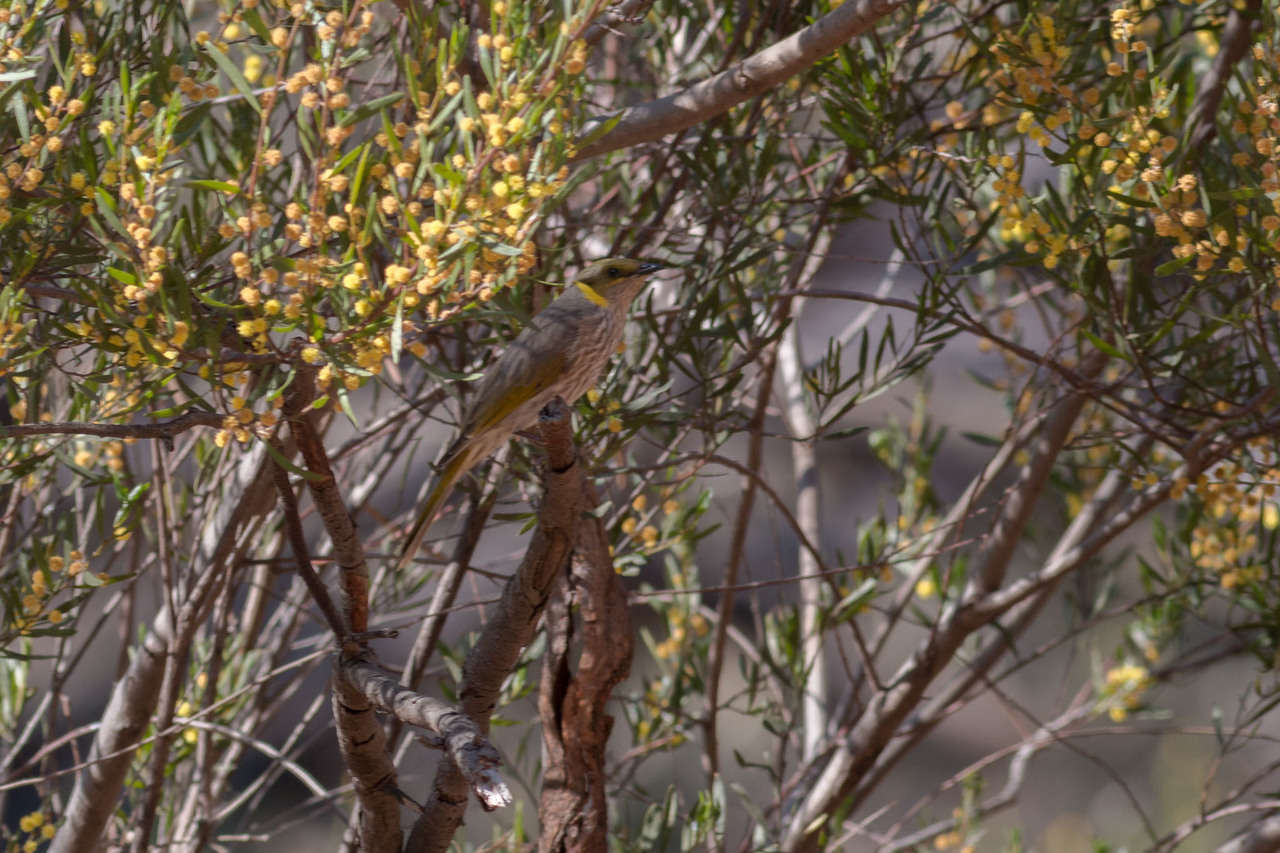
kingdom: Animalia
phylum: Chordata
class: Aves
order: Passeriformes
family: Meliphagidae
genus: Ptilotula
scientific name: Ptilotula ornata
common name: Yellow-plumed honeyeater
